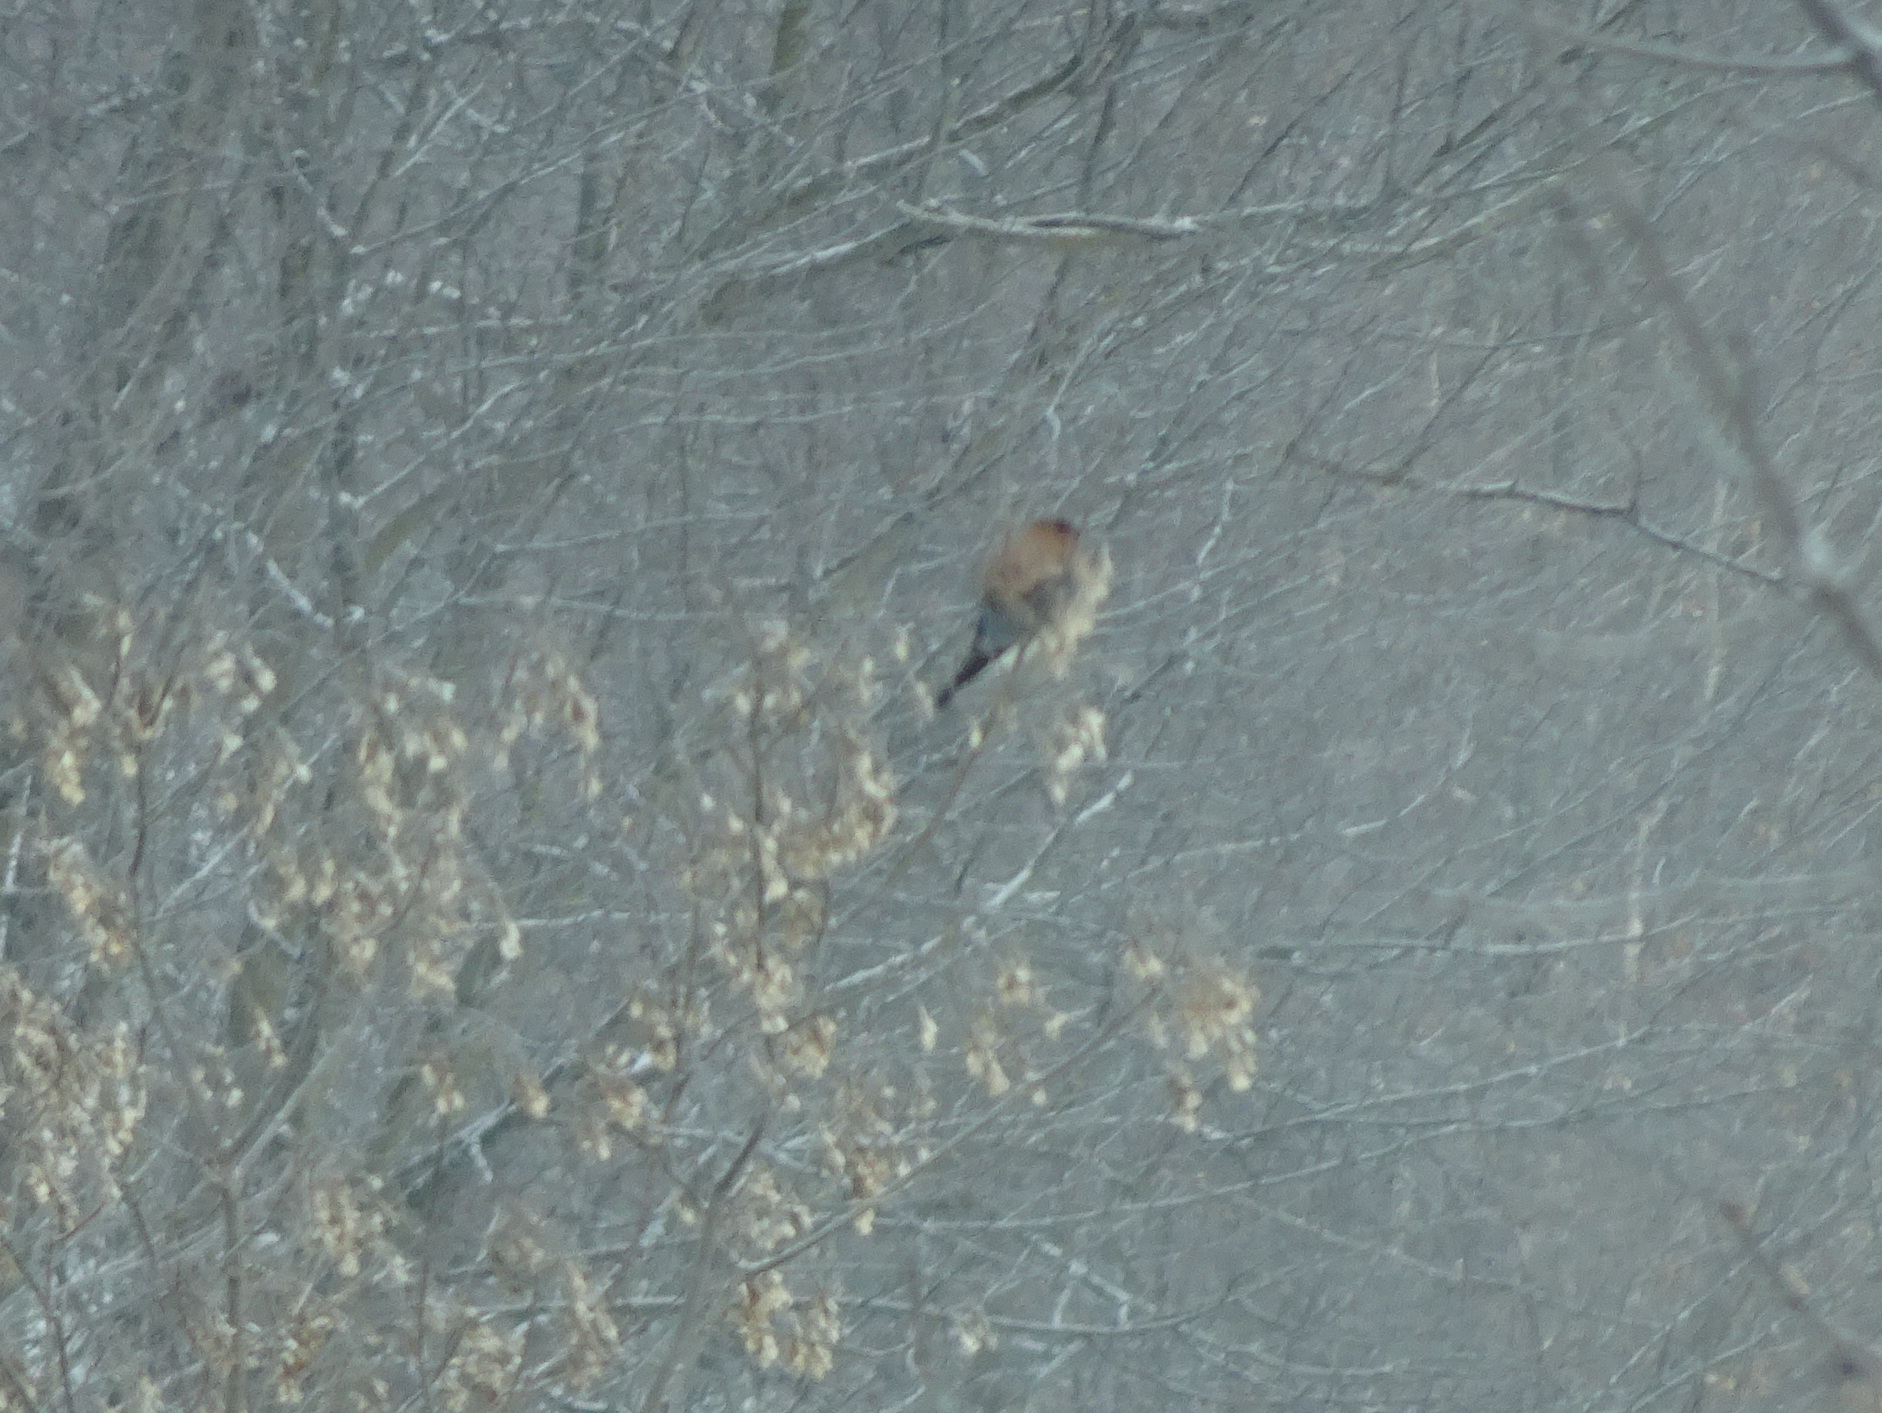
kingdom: Animalia
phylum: Chordata
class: Aves
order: Falconiformes
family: Falconidae
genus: Falco
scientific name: Falco sparverius
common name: American kestrel
